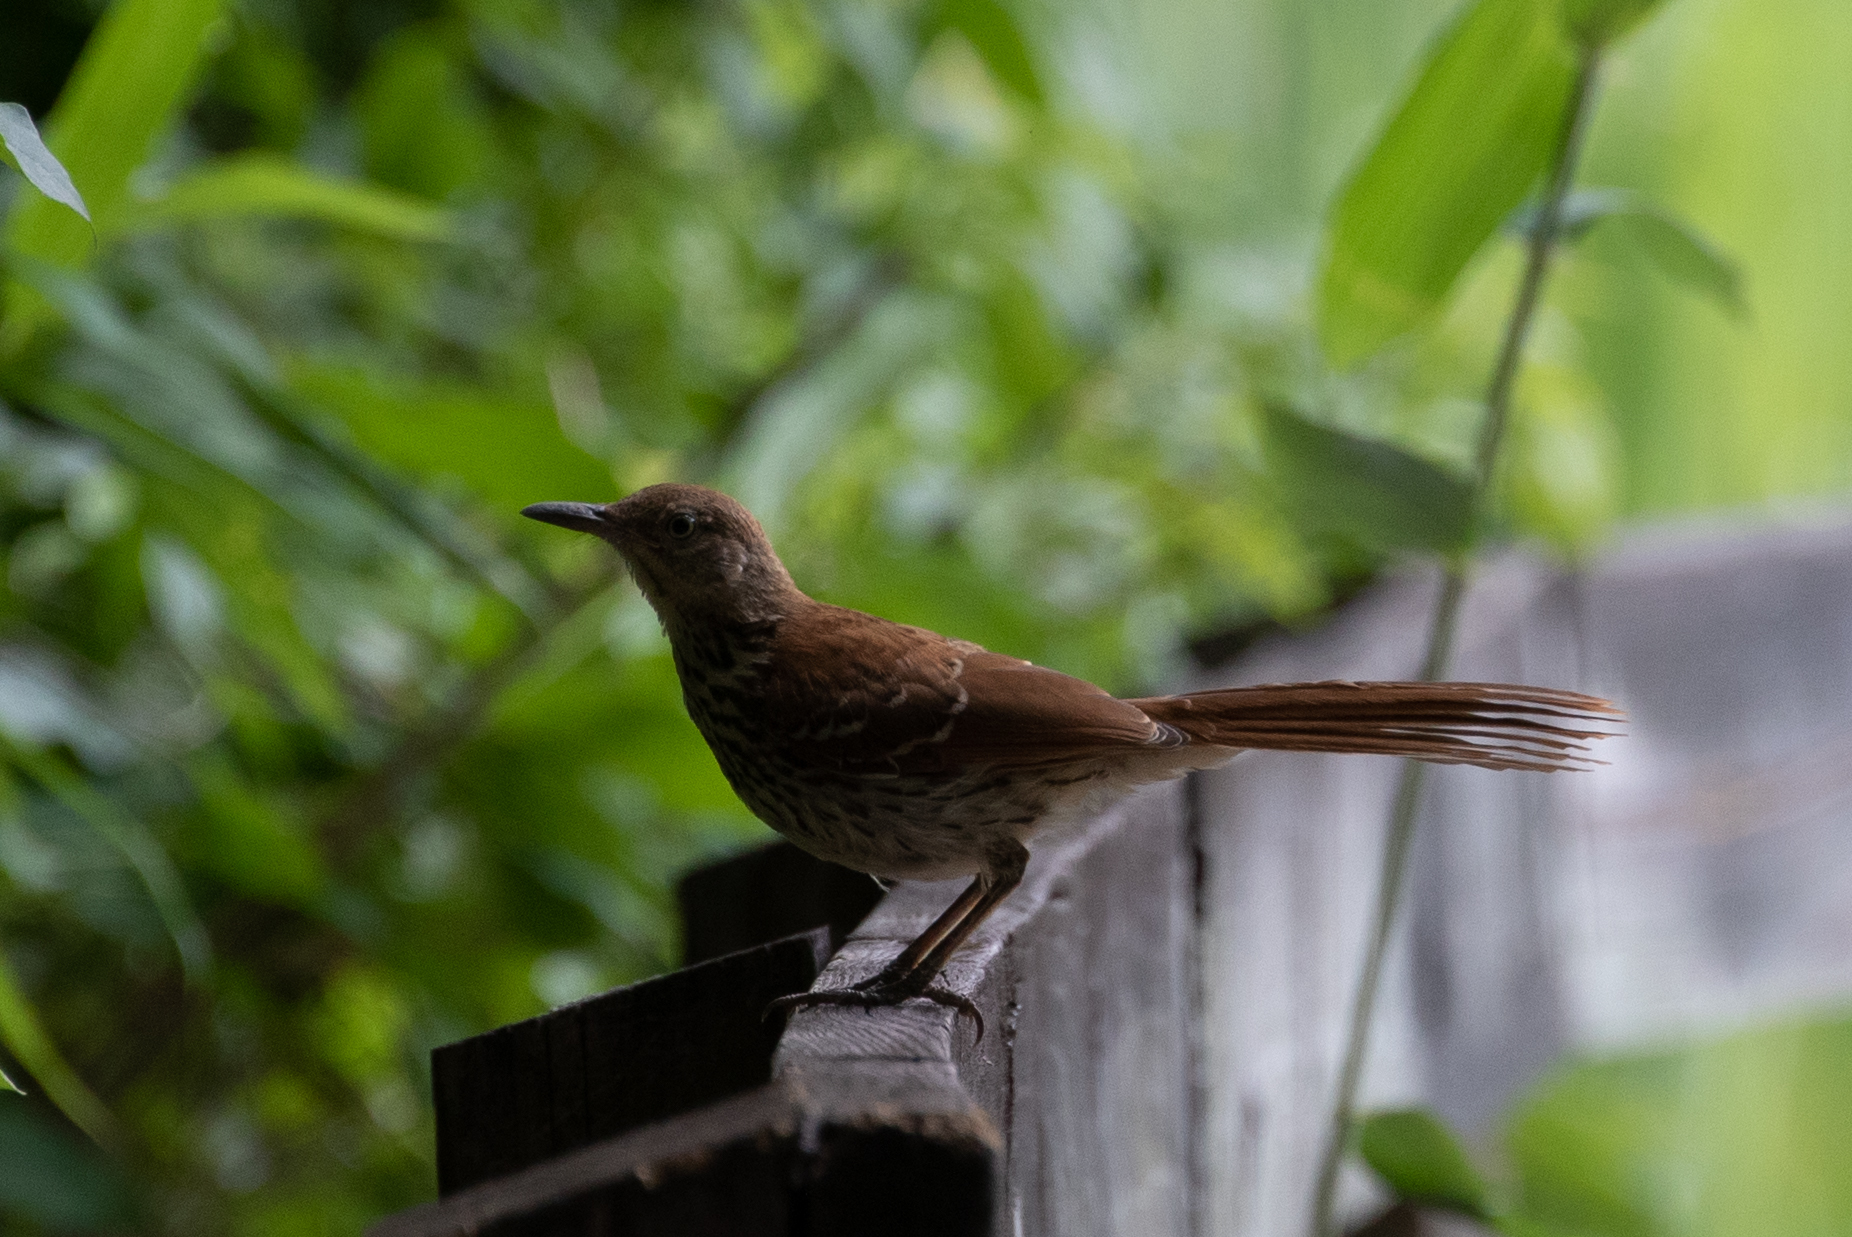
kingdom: Animalia
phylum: Chordata
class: Aves
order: Passeriformes
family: Mimidae
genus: Toxostoma
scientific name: Toxostoma rufum
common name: Brown thrasher
